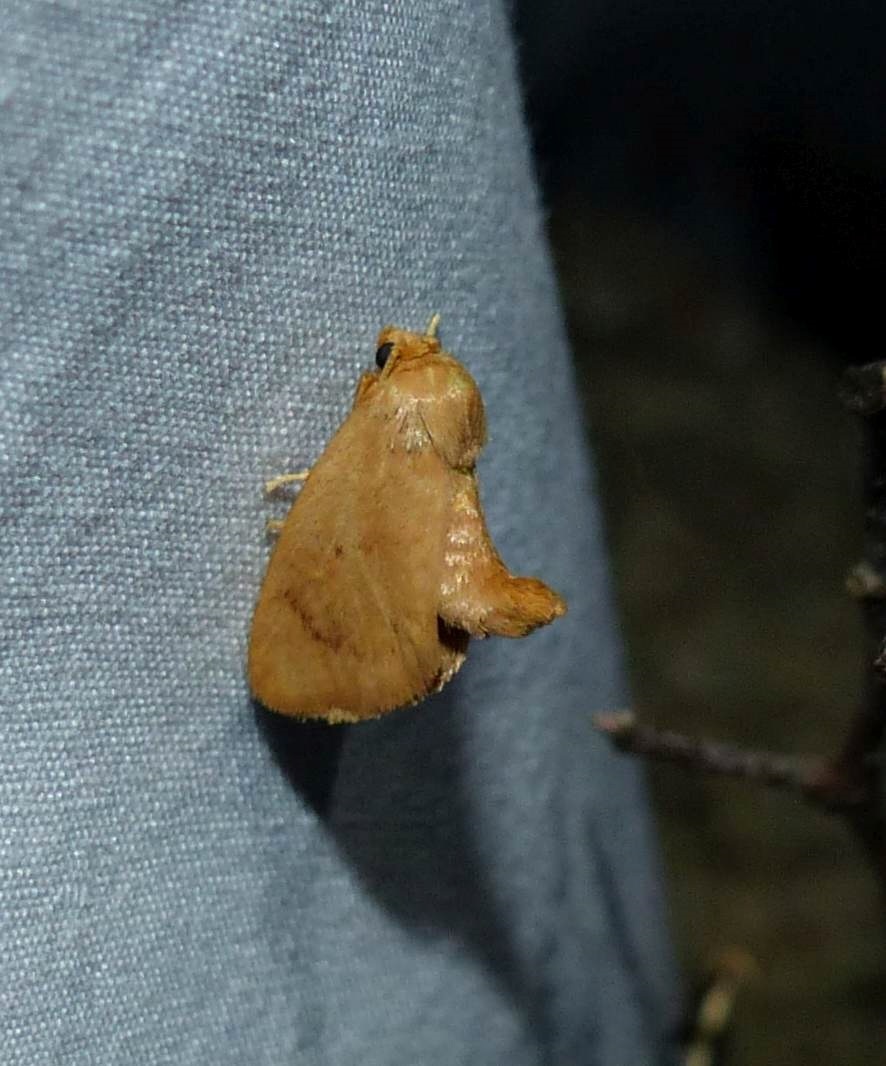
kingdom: Animalia
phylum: Arthropoda
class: Insecta
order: Lepidoptera
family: Limacodidae
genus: Tortricidia
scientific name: Tortricidia pallida
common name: Red-crossed button slug moth
